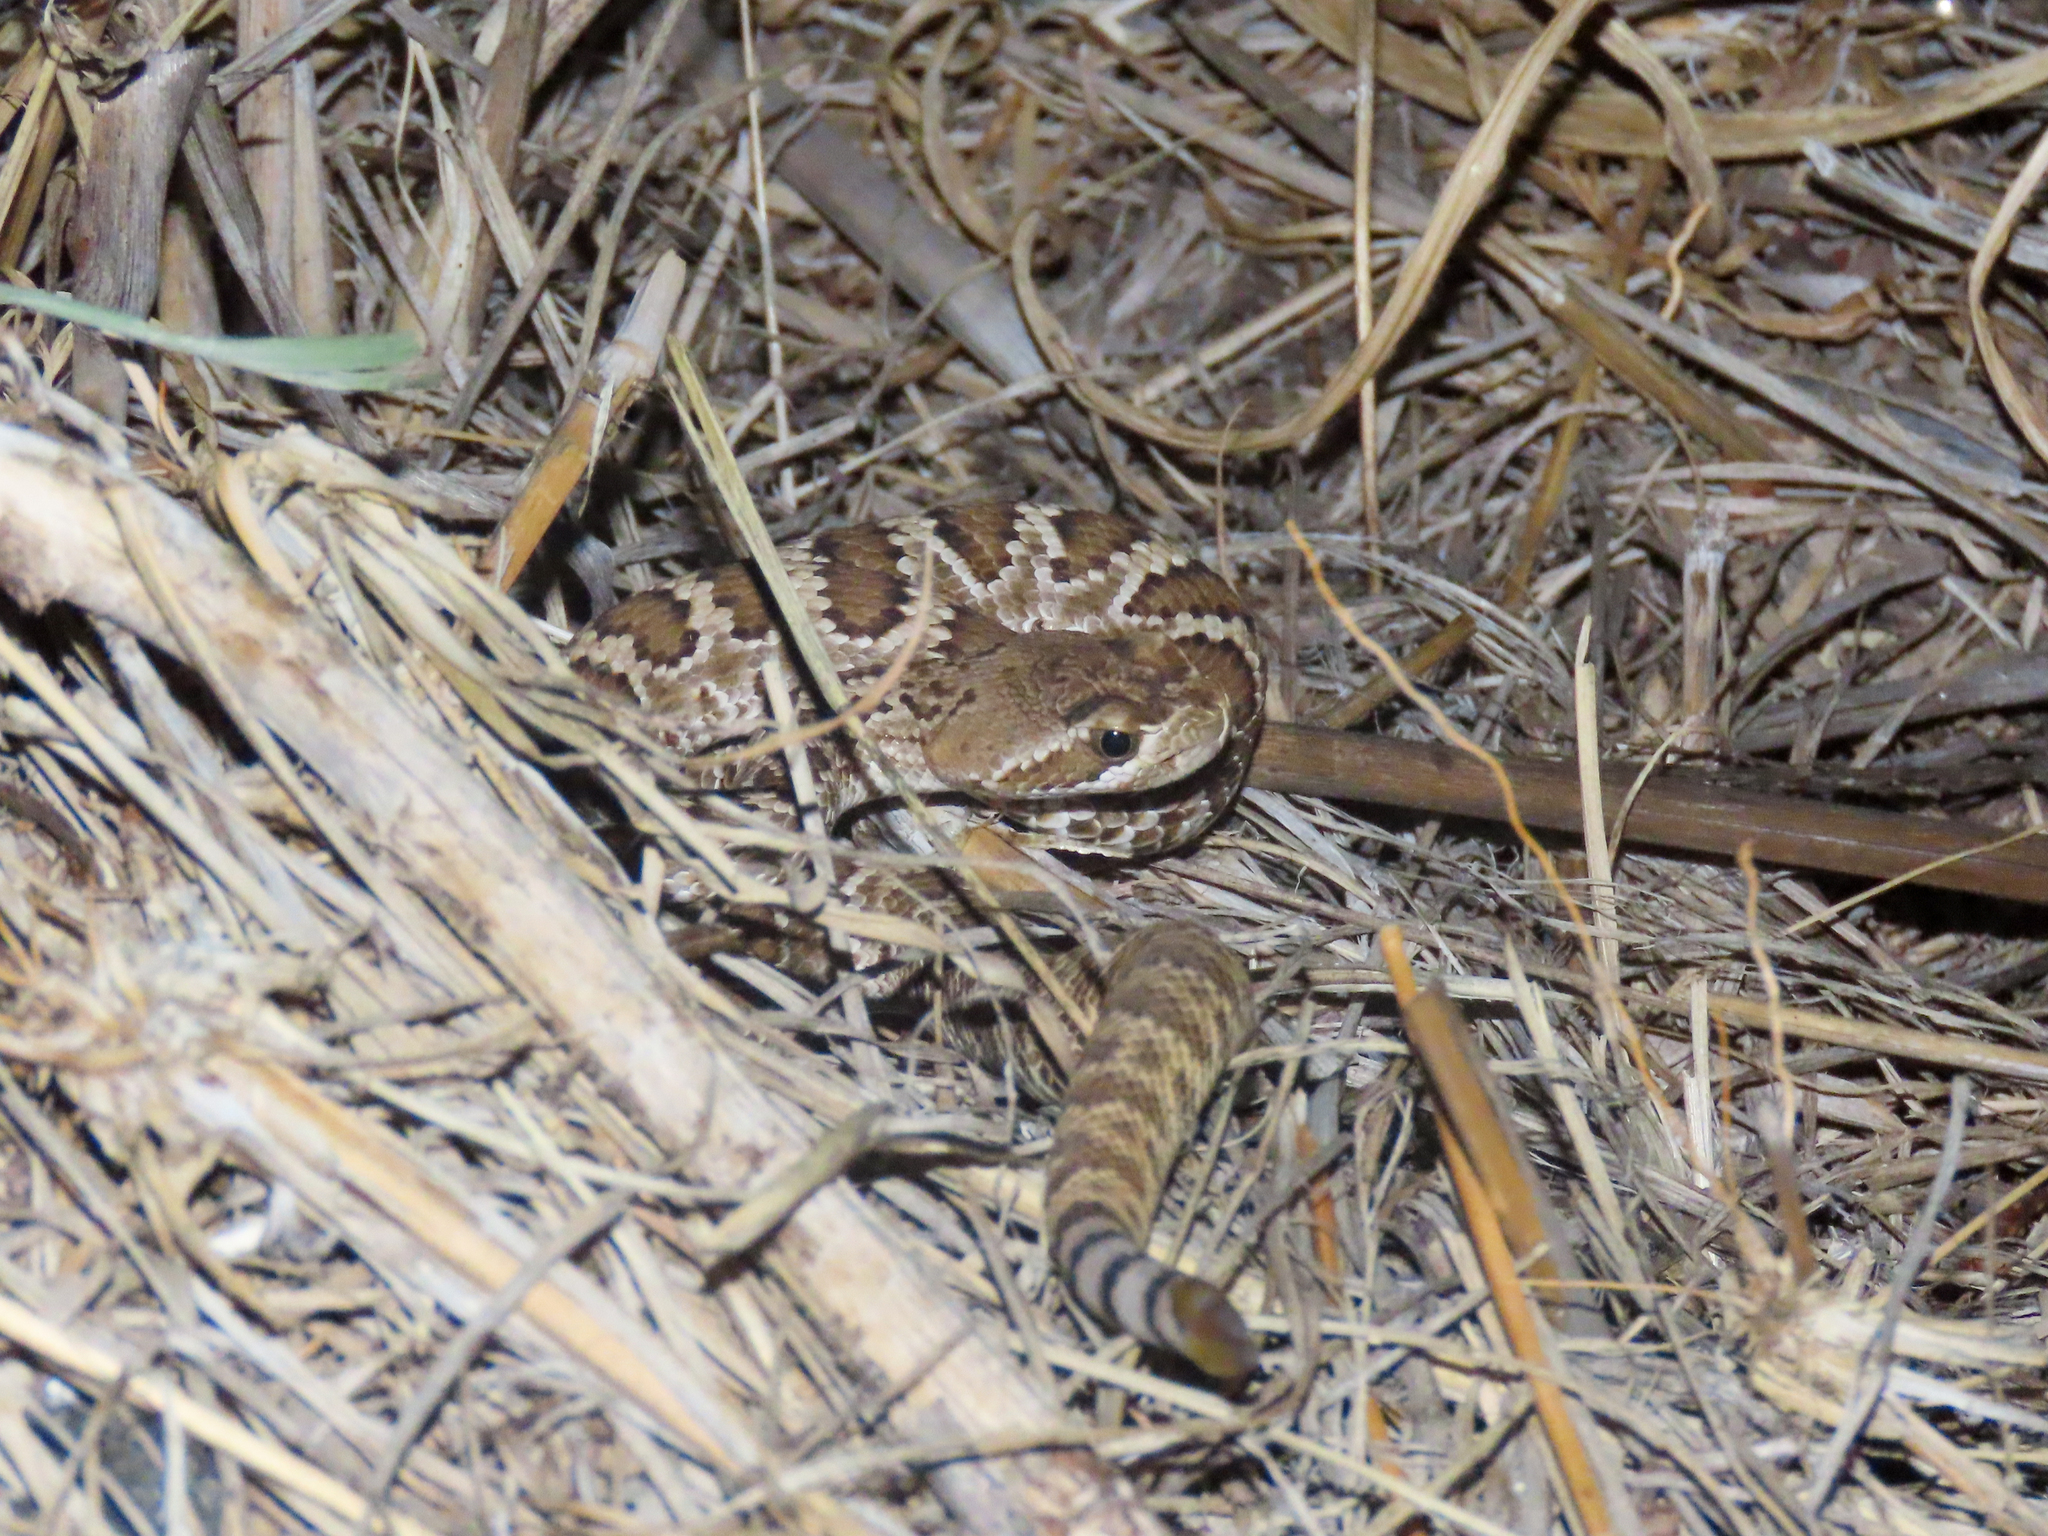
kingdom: Animalia
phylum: Chordata
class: Squamata
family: Viperidae
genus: Crotalus
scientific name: Crotalus scutulatus
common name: Scutulatus
